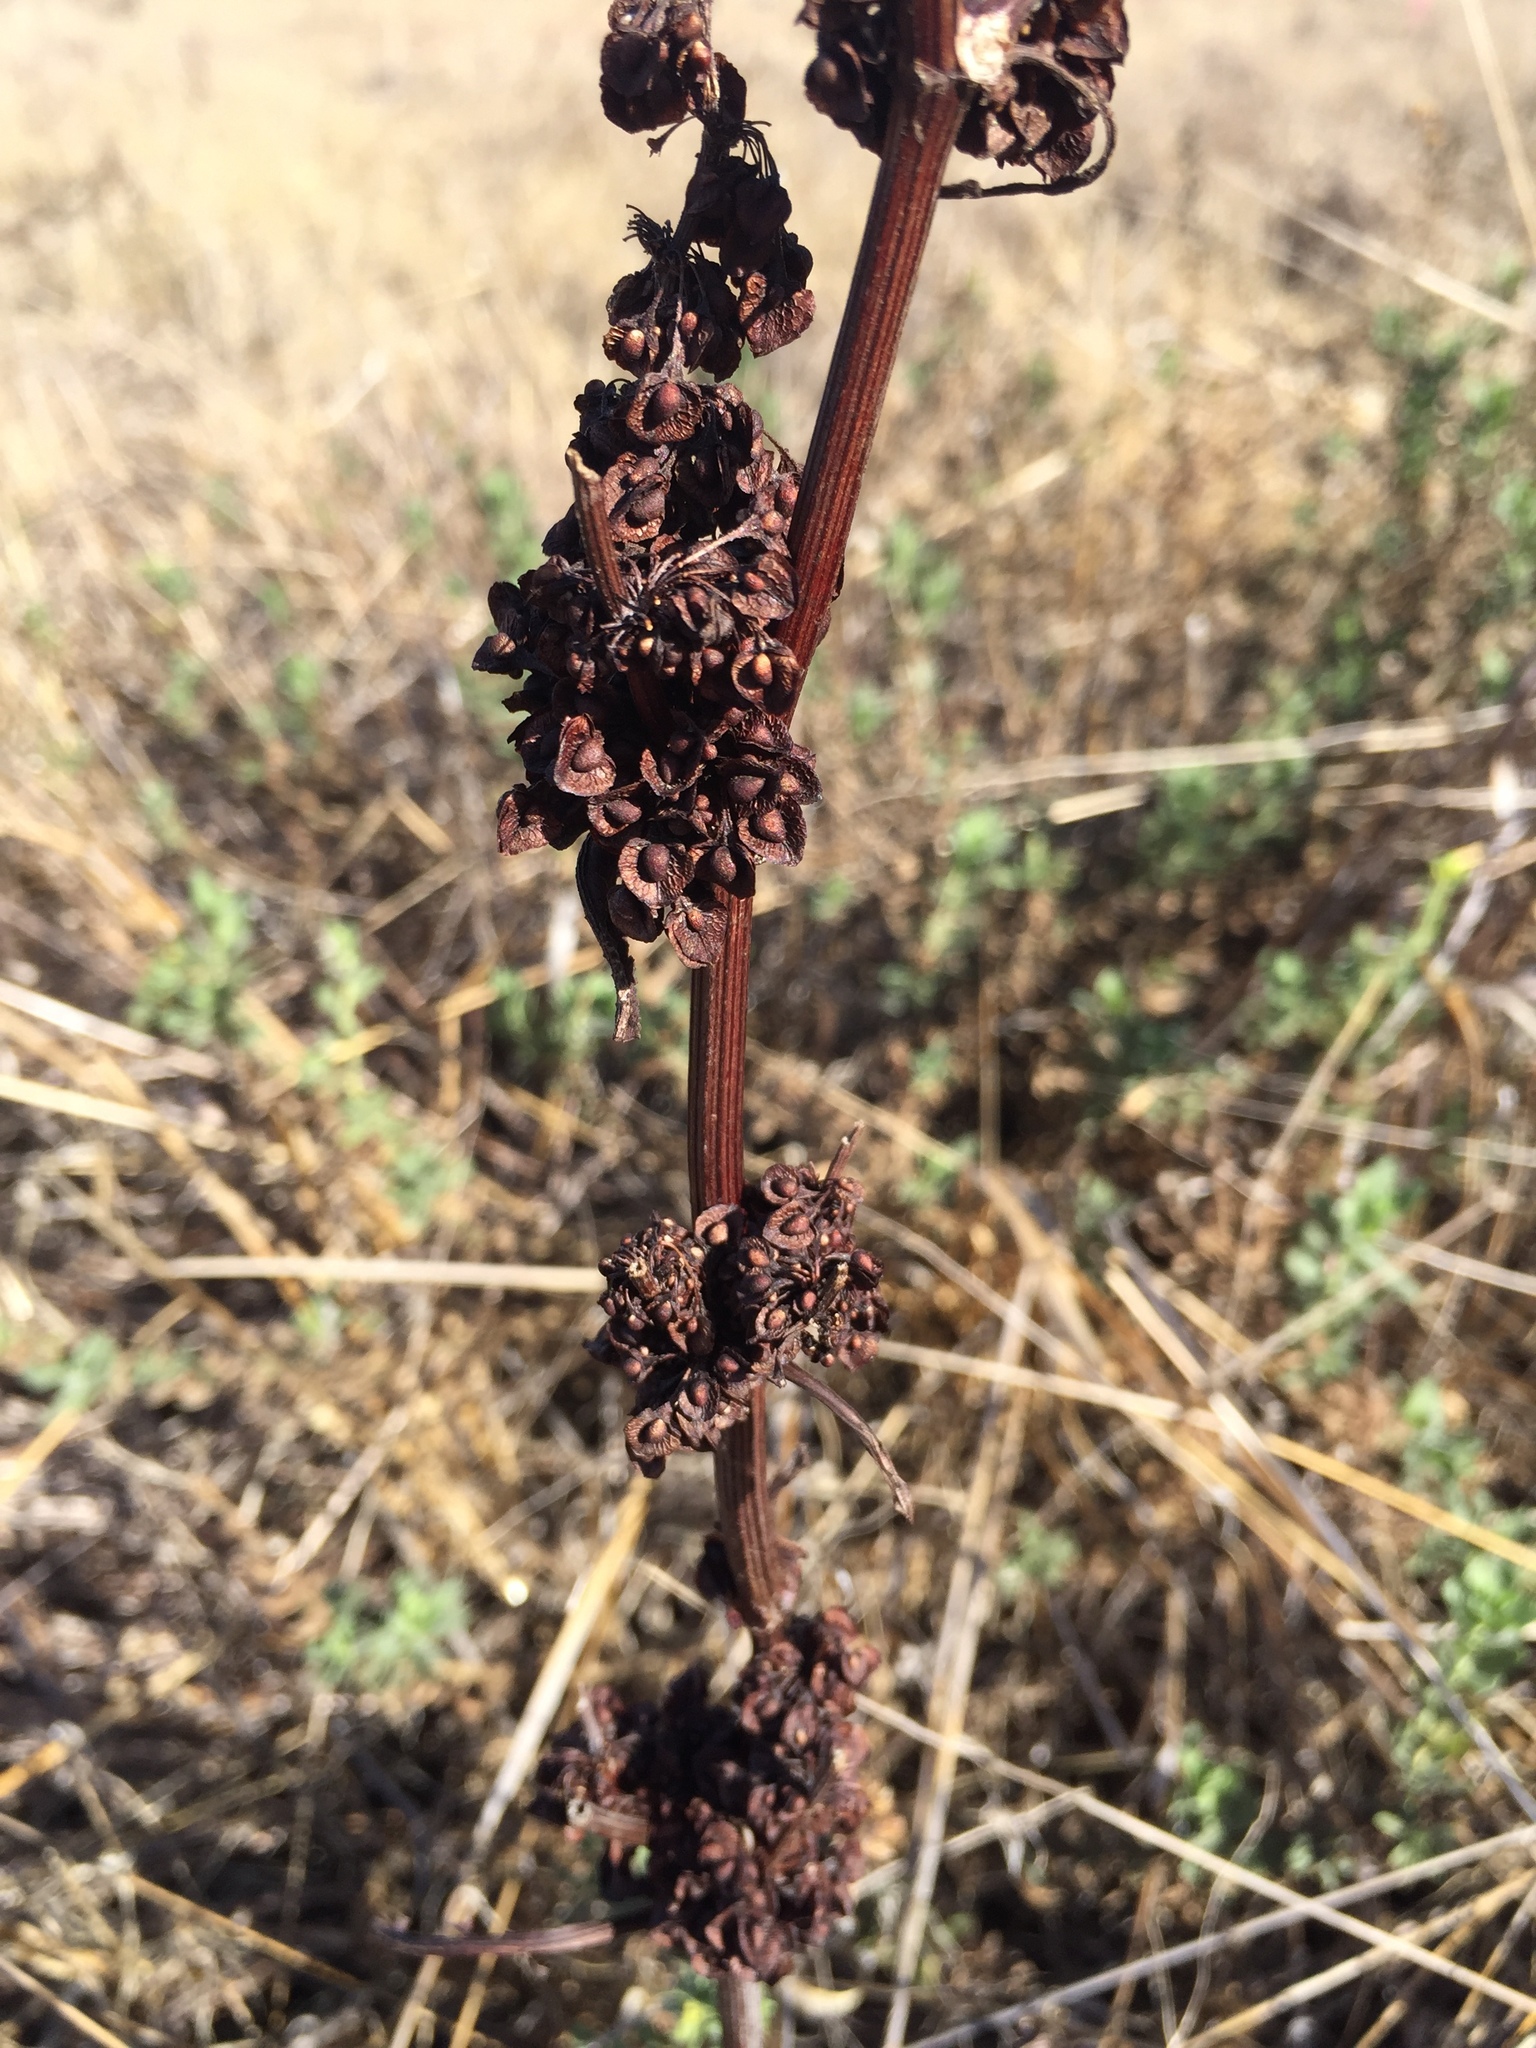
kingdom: Plantae
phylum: Tracheophyta
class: Magnoliopsida
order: Caryophyllales
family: Polygonaceae
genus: Rumex
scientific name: Rumex crispus
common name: Curled dock
